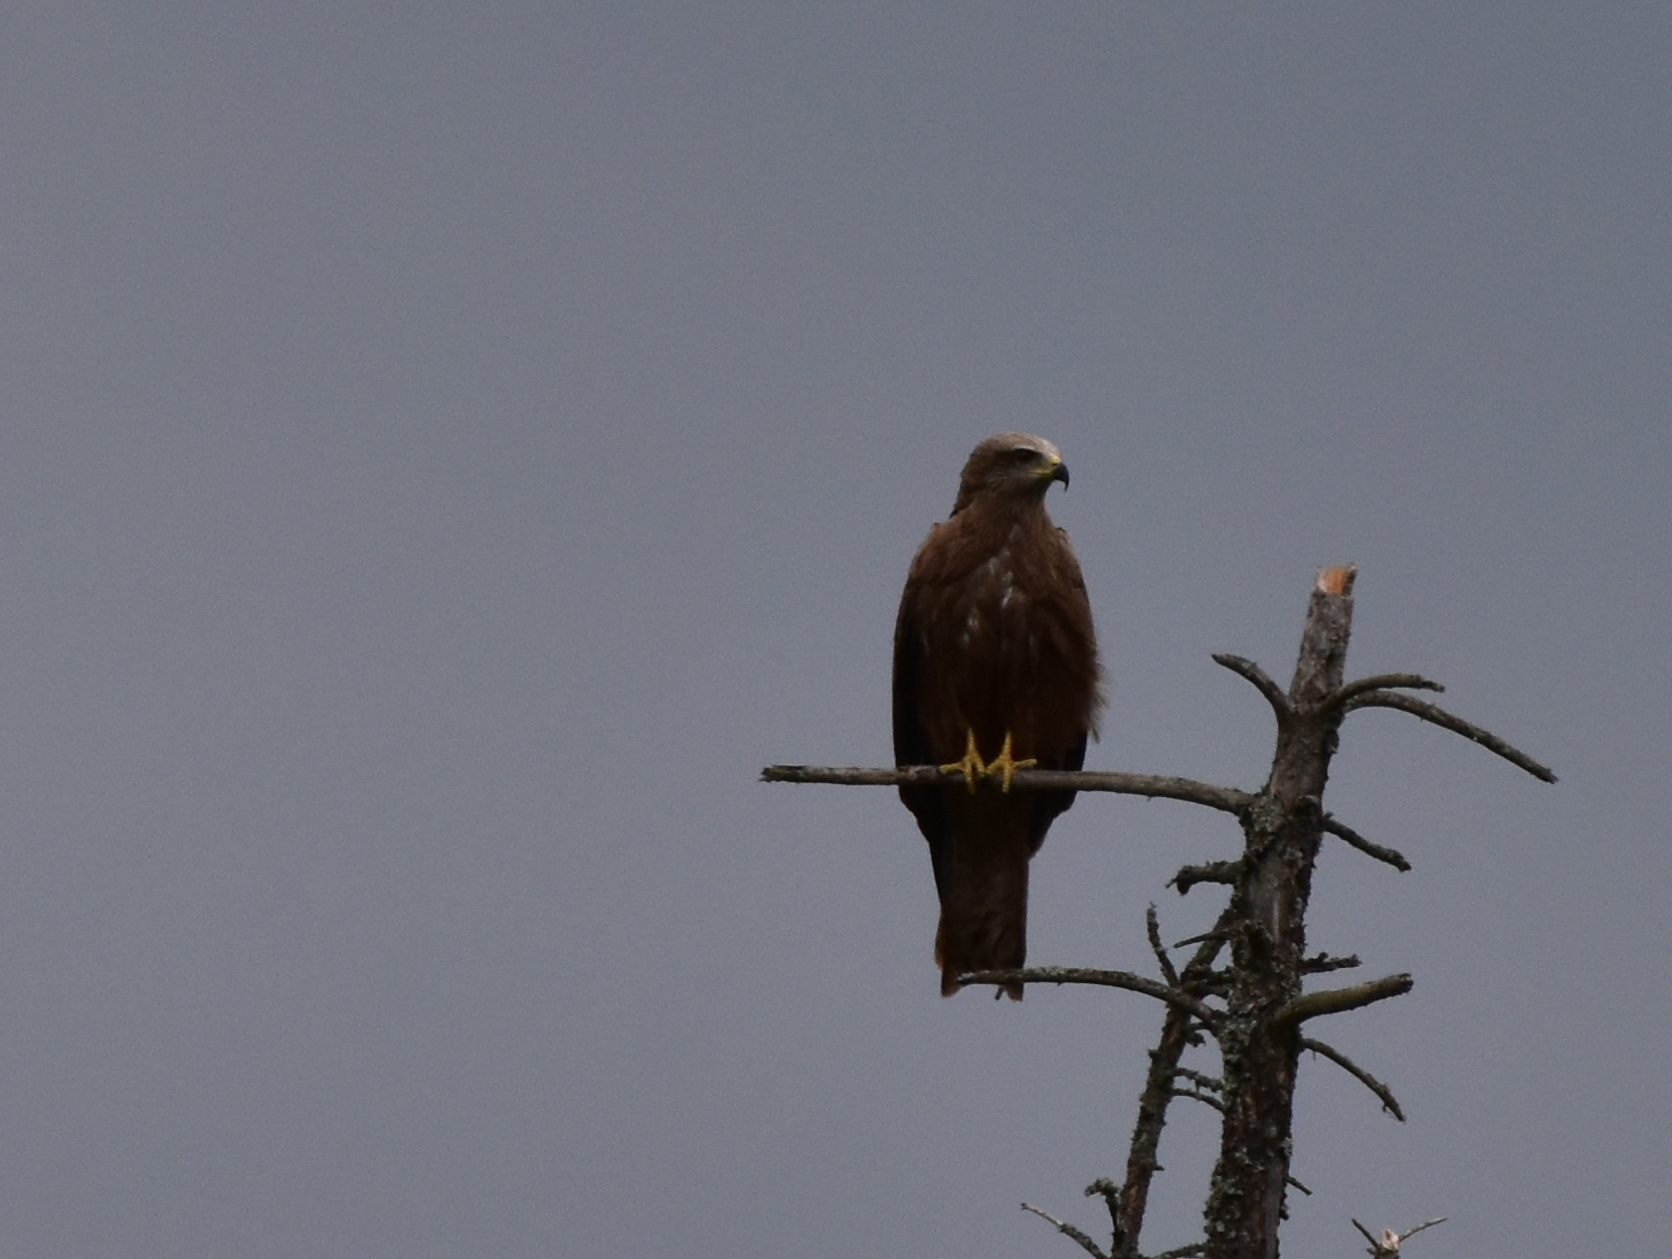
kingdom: Animalia
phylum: Chordata
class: Aves
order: Accipitriformes
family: Accipitridae
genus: Milvus
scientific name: Milvus migrans
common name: Black kite
